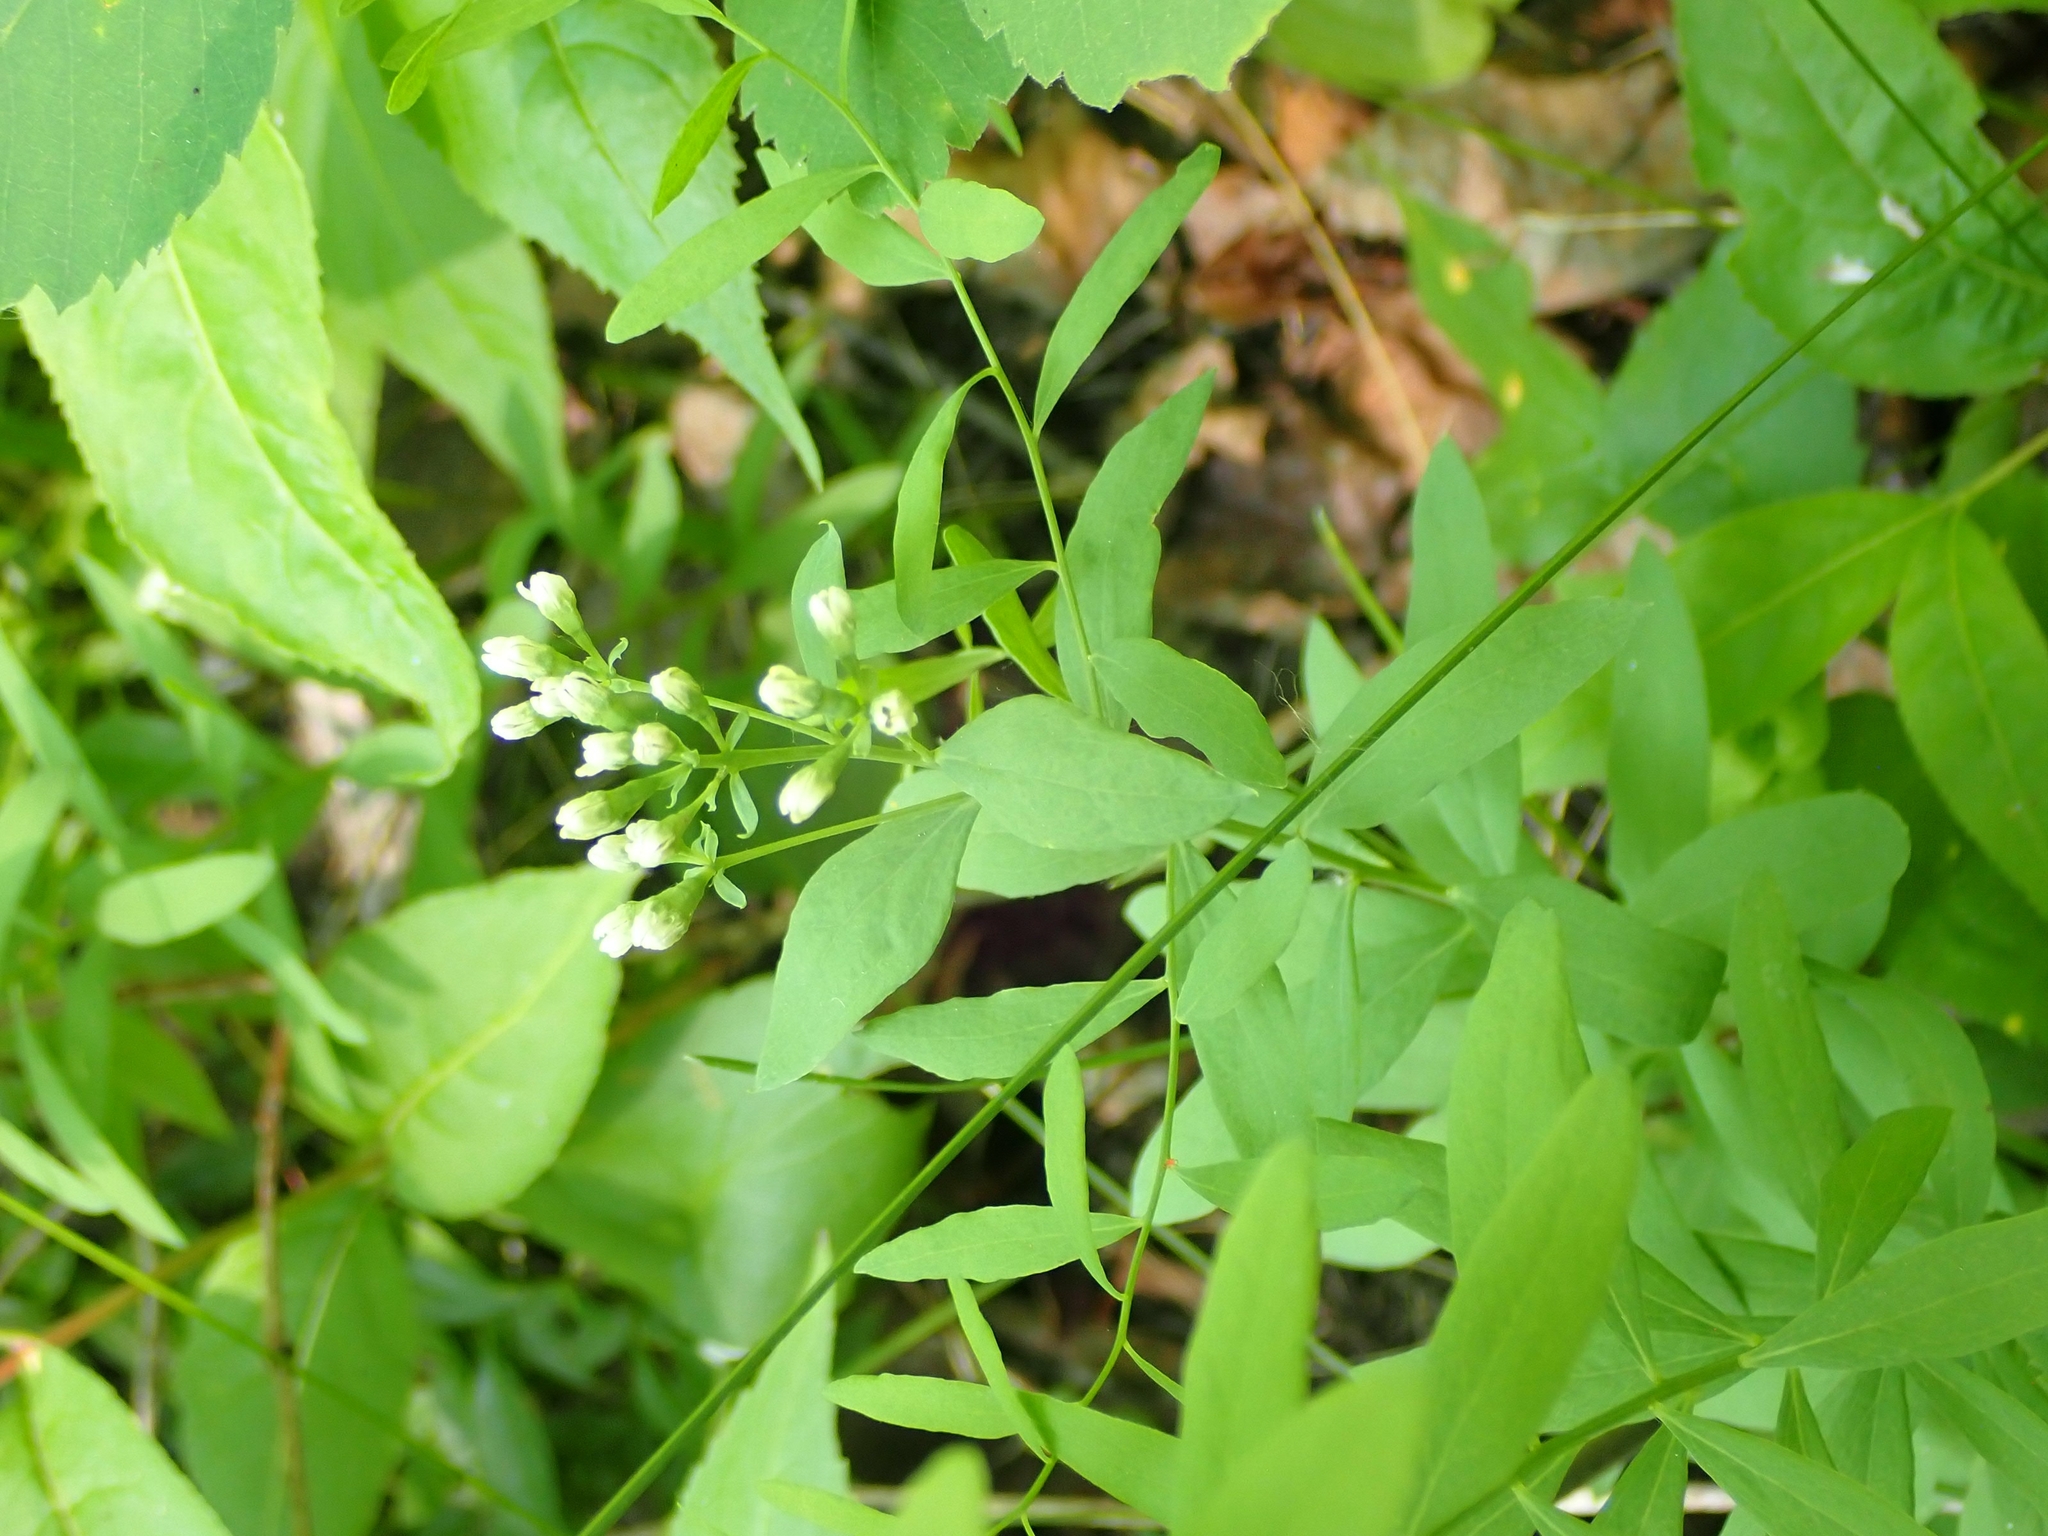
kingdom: Plantae
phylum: Tracheophyta
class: Magnoliopsida
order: Santalales
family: Comandraceae
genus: Comandra
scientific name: Comandra umbellata
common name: Bastard toadflax
